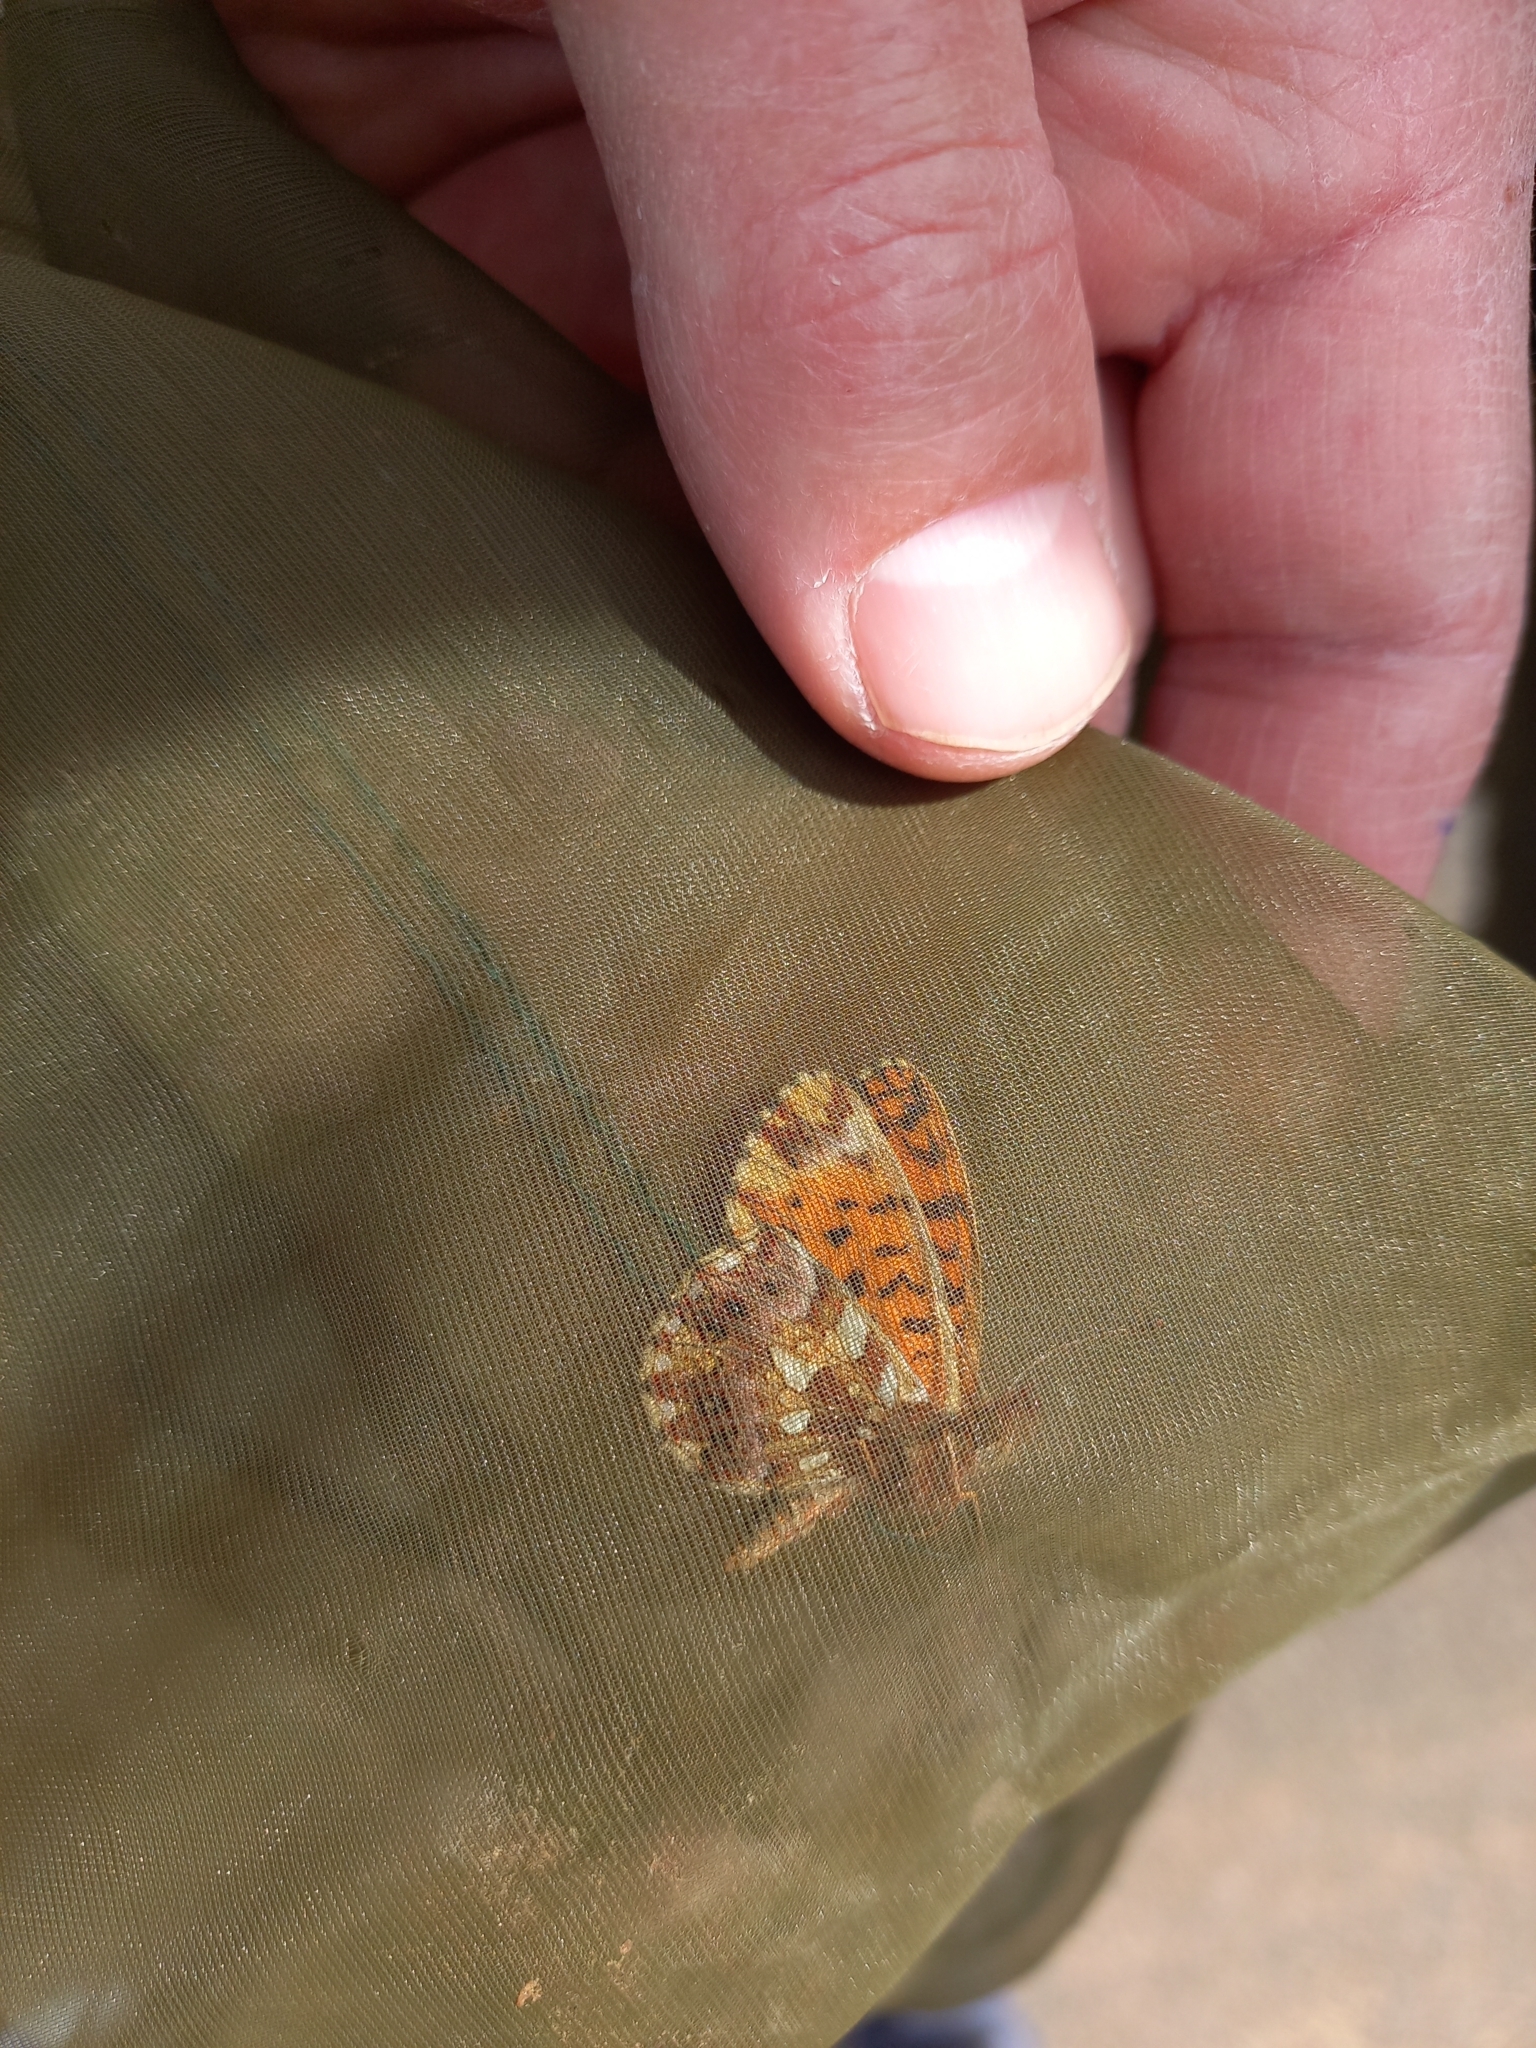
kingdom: Animalia
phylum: Arthropoda
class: Insecta
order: Lepidoptera
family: Nymphalidae
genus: Boloria
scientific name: Boloria dia
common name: Weaver's fritillary
